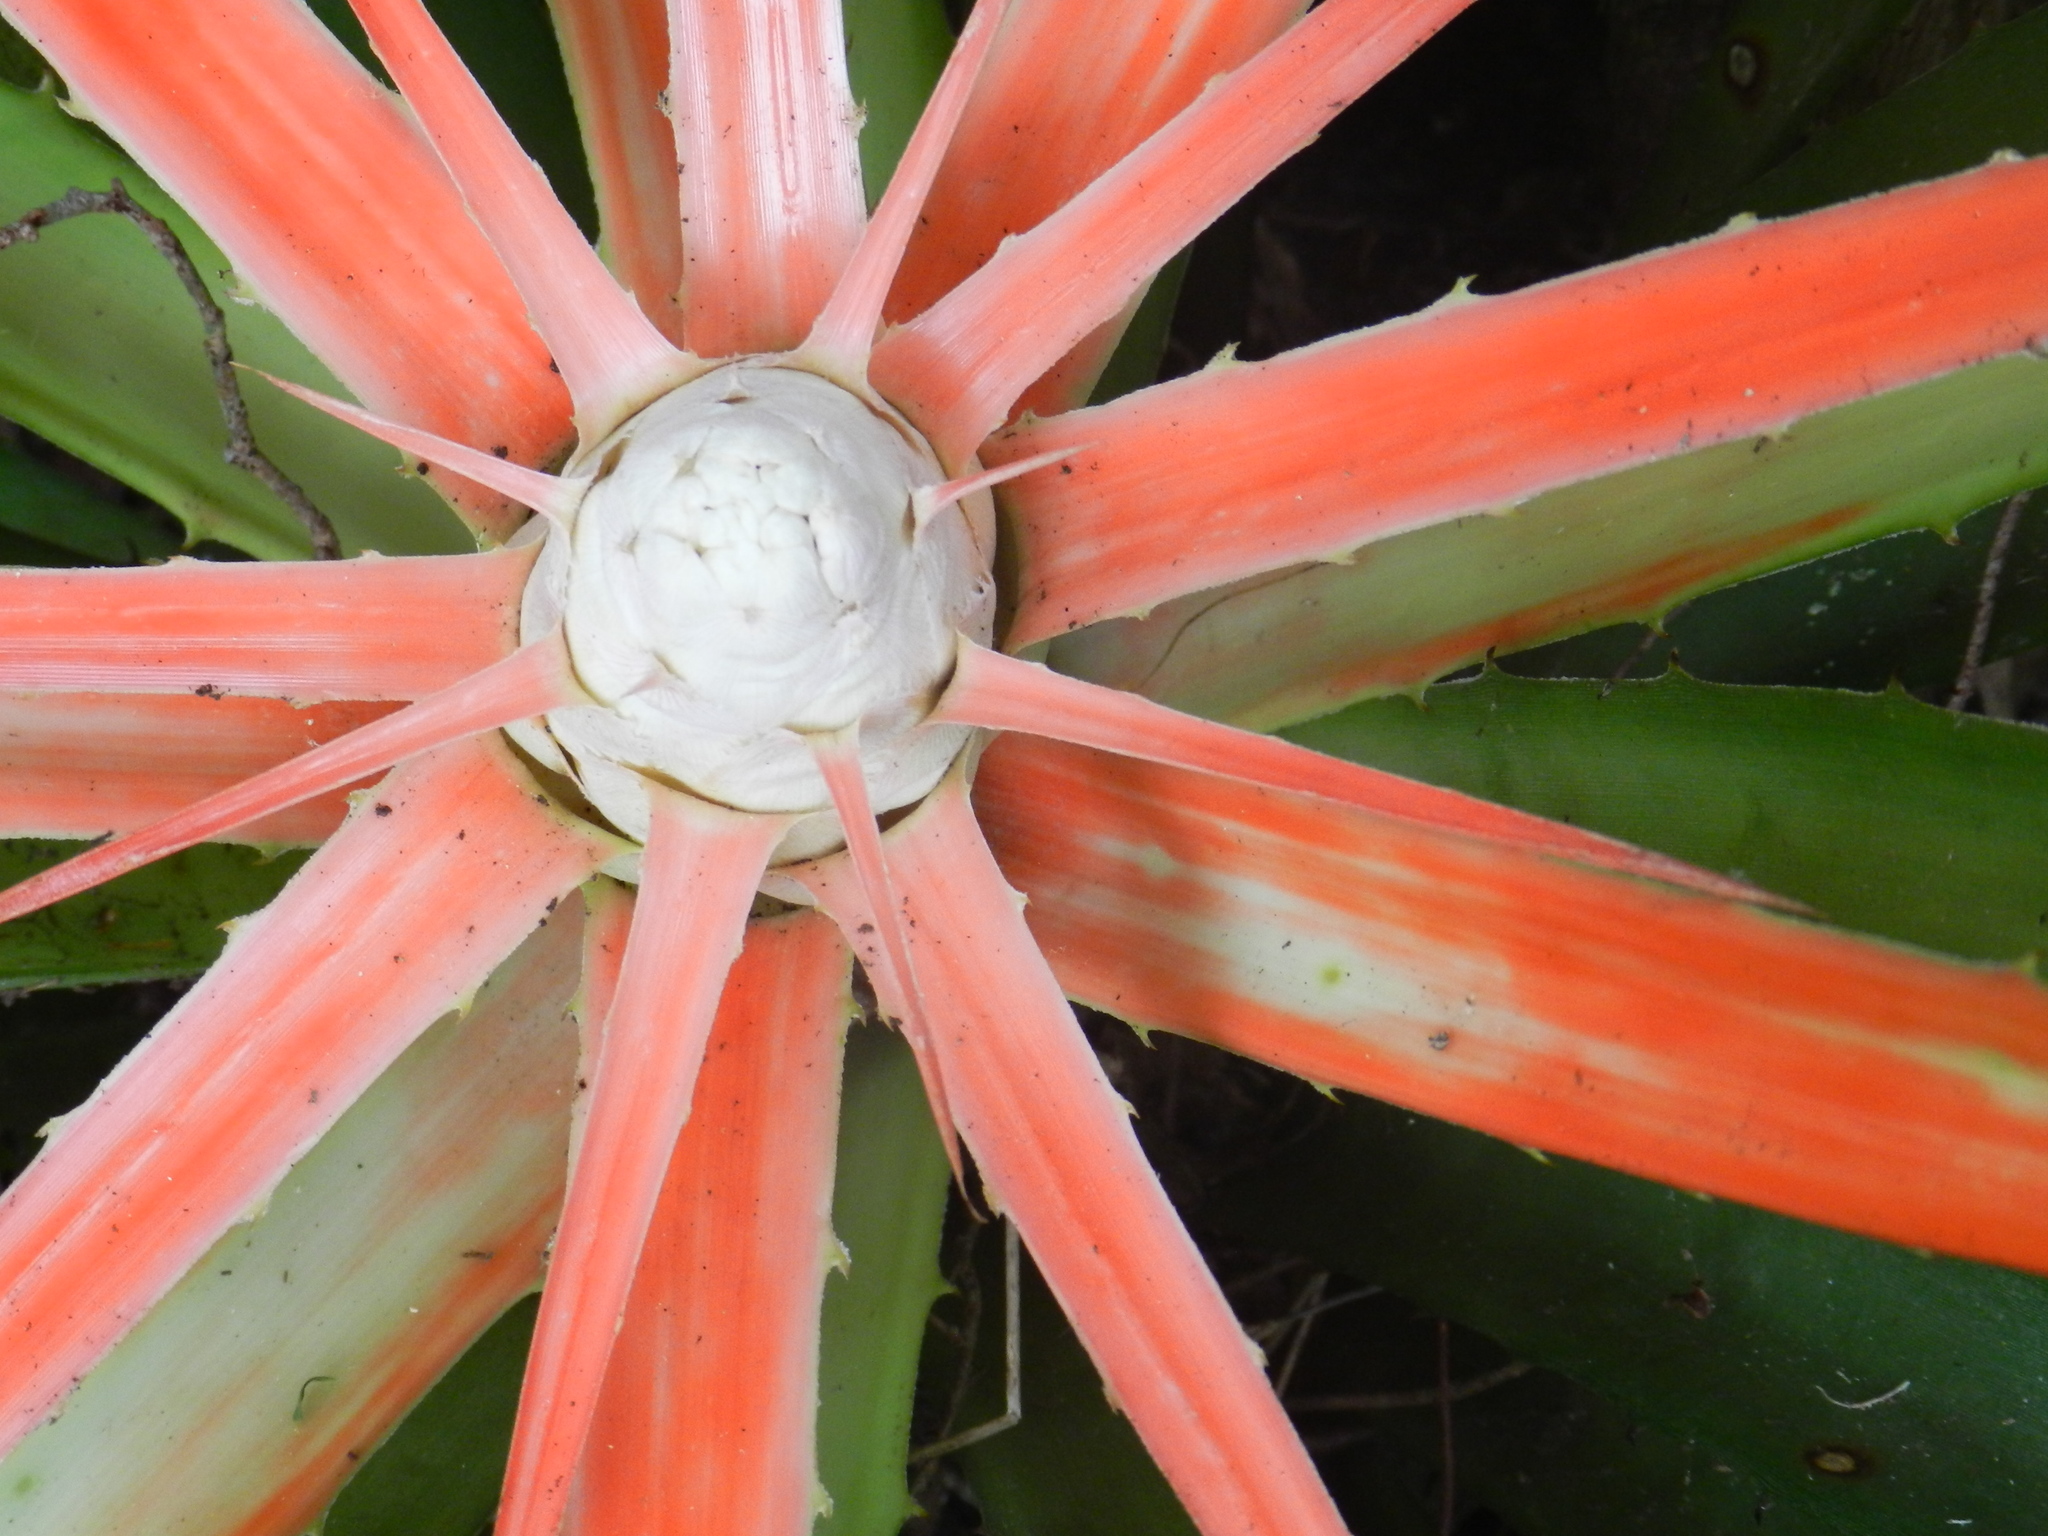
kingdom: Plantae
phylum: Tracheophyta
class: Liliopsida
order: Poales
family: Bromeliaceae
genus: Bromelia
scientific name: Bromelia balansae
